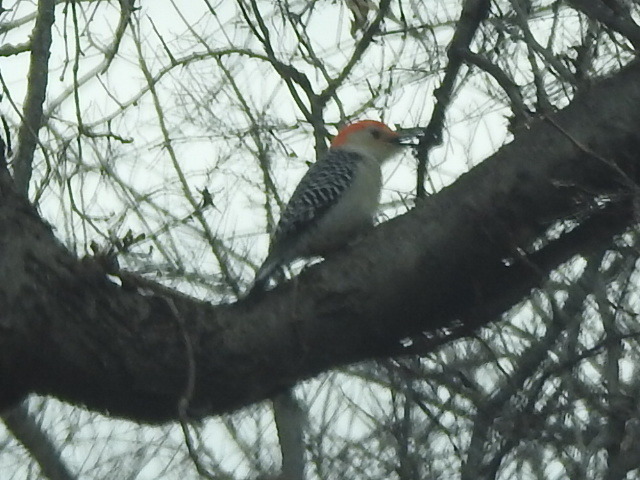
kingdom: Animalia
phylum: Chordata
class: Aves
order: Piciformes
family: Picidae
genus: Melanerpes
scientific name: Melanerpes carolinus
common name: Red-bellied woodpecker
